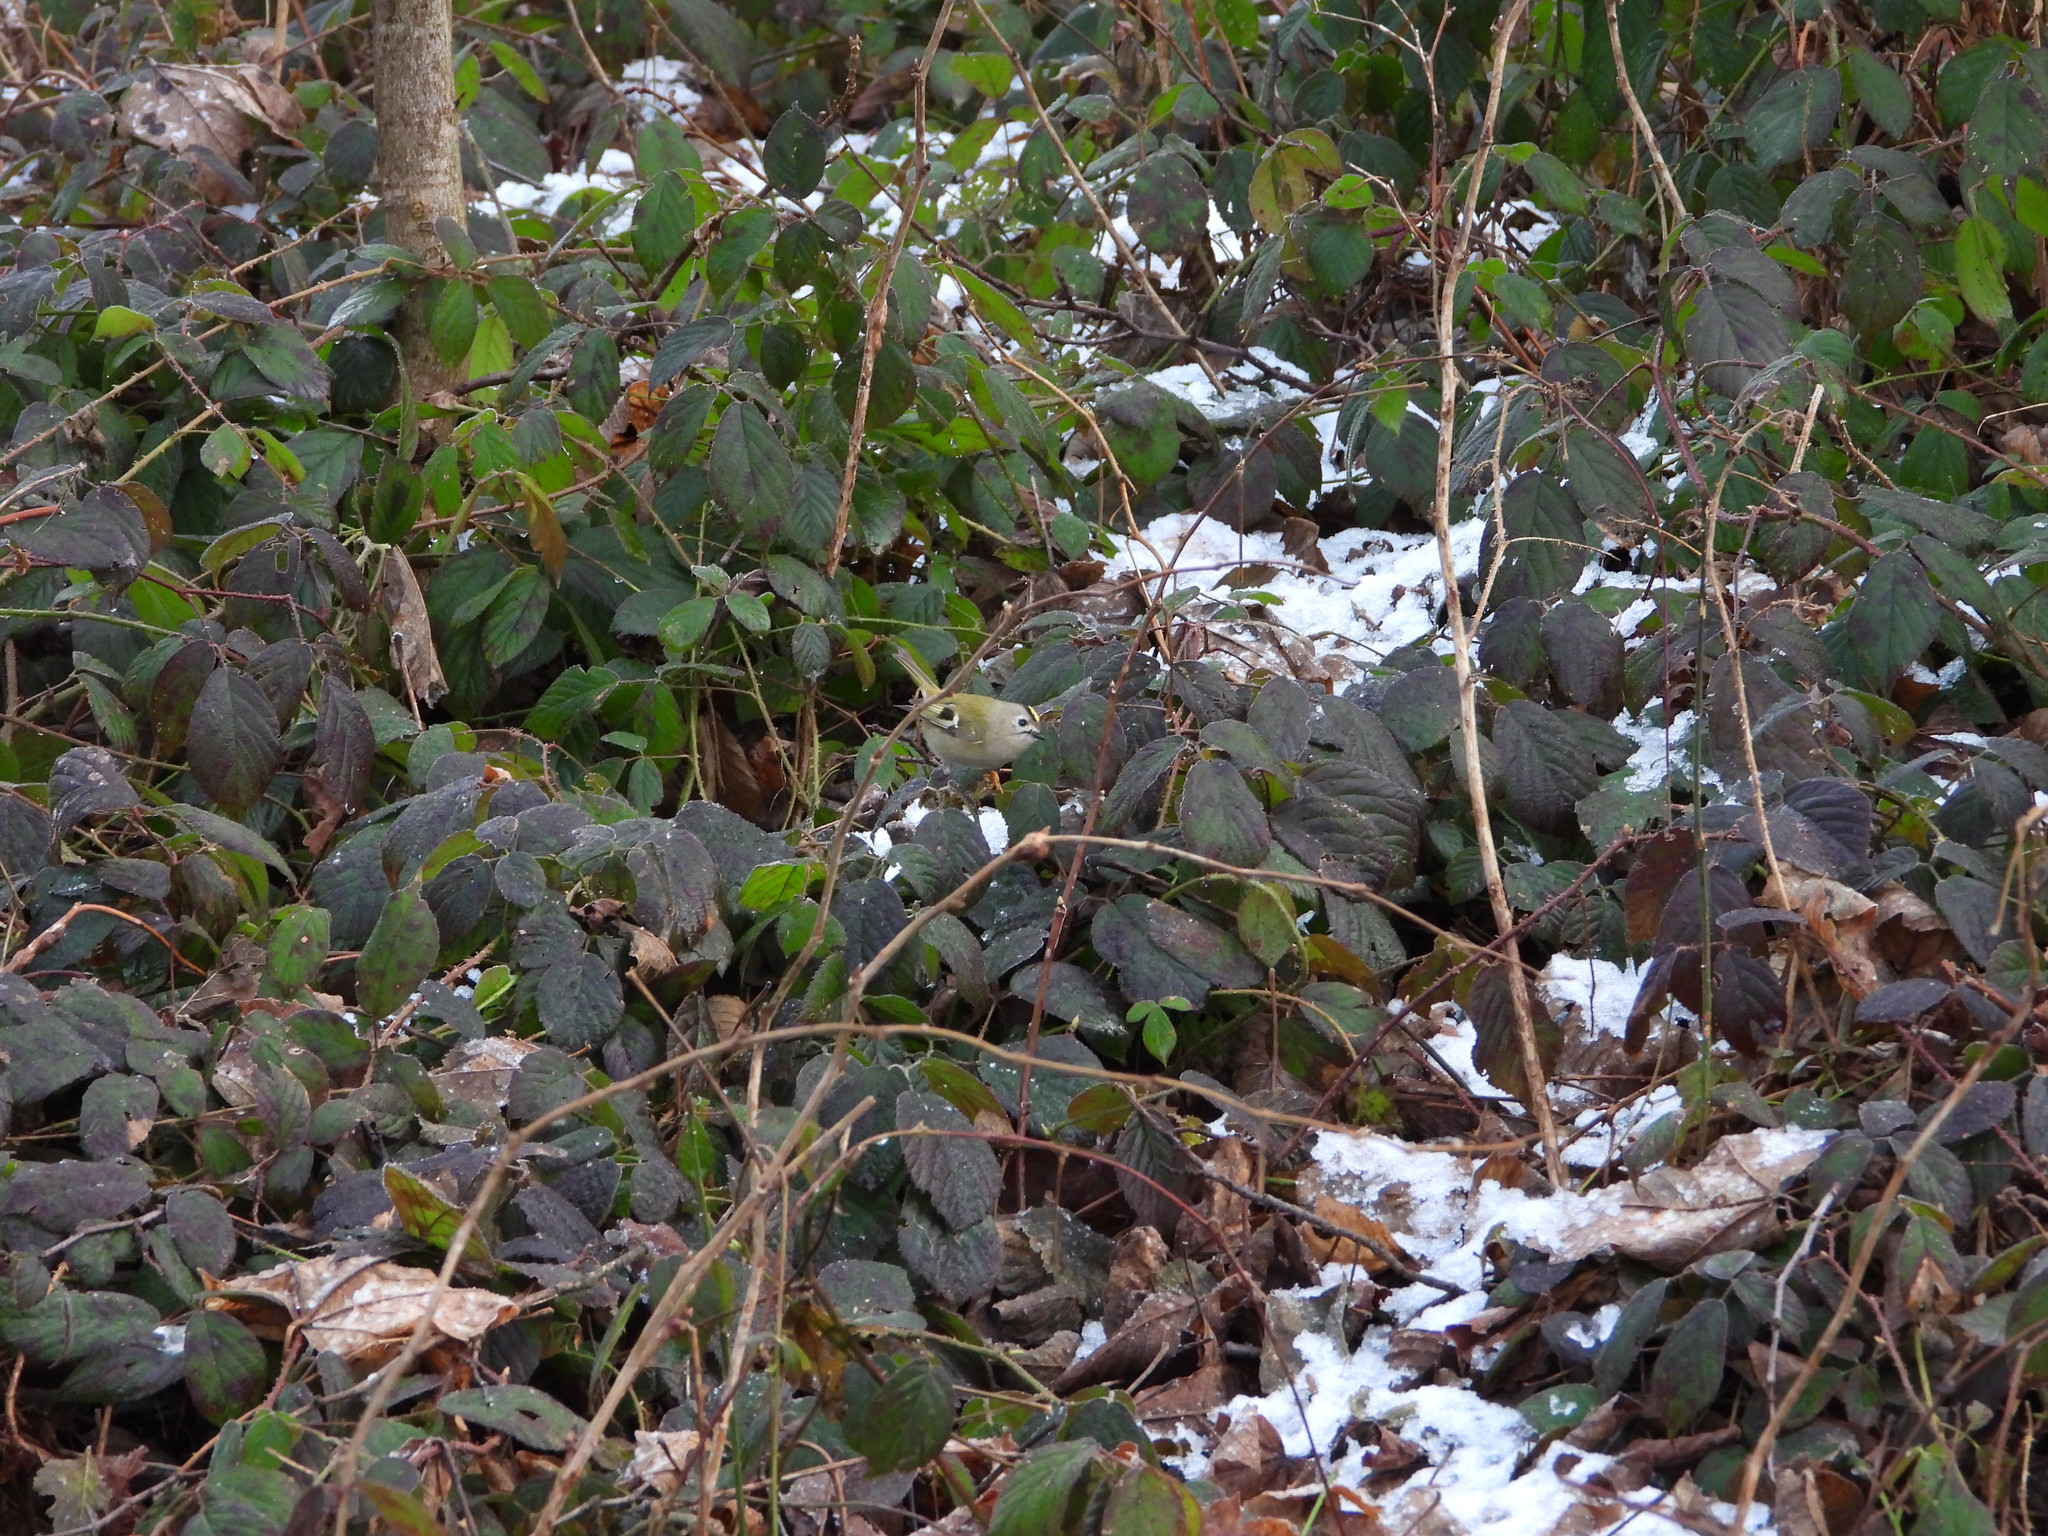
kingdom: Animalia
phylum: Chordata
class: Aves
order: Passeriformes
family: Regulidae
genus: Regulus
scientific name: Regulus regulus
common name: Goldcrest
